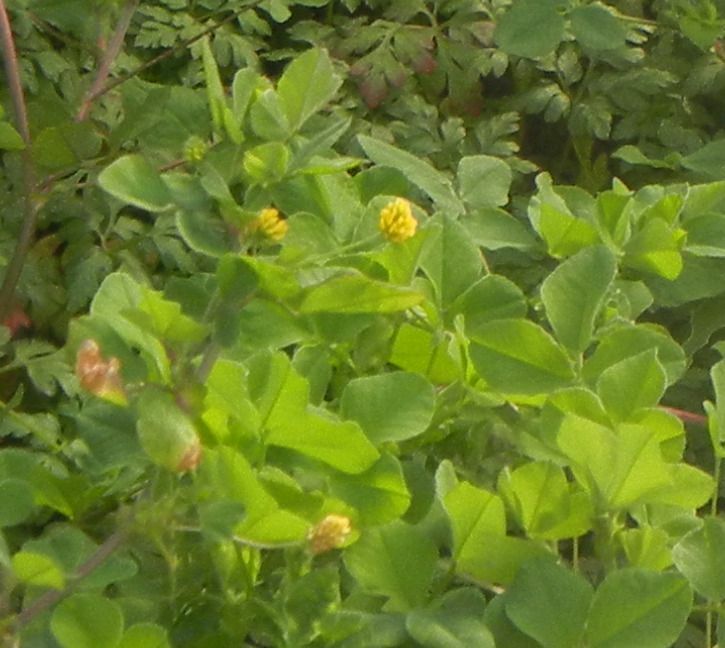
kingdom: Plantae
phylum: Tracheophyta
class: Magnoliopsida
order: Fabales
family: Fabaceae
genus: Medicago
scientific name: Medicago lupulina
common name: Black medick
